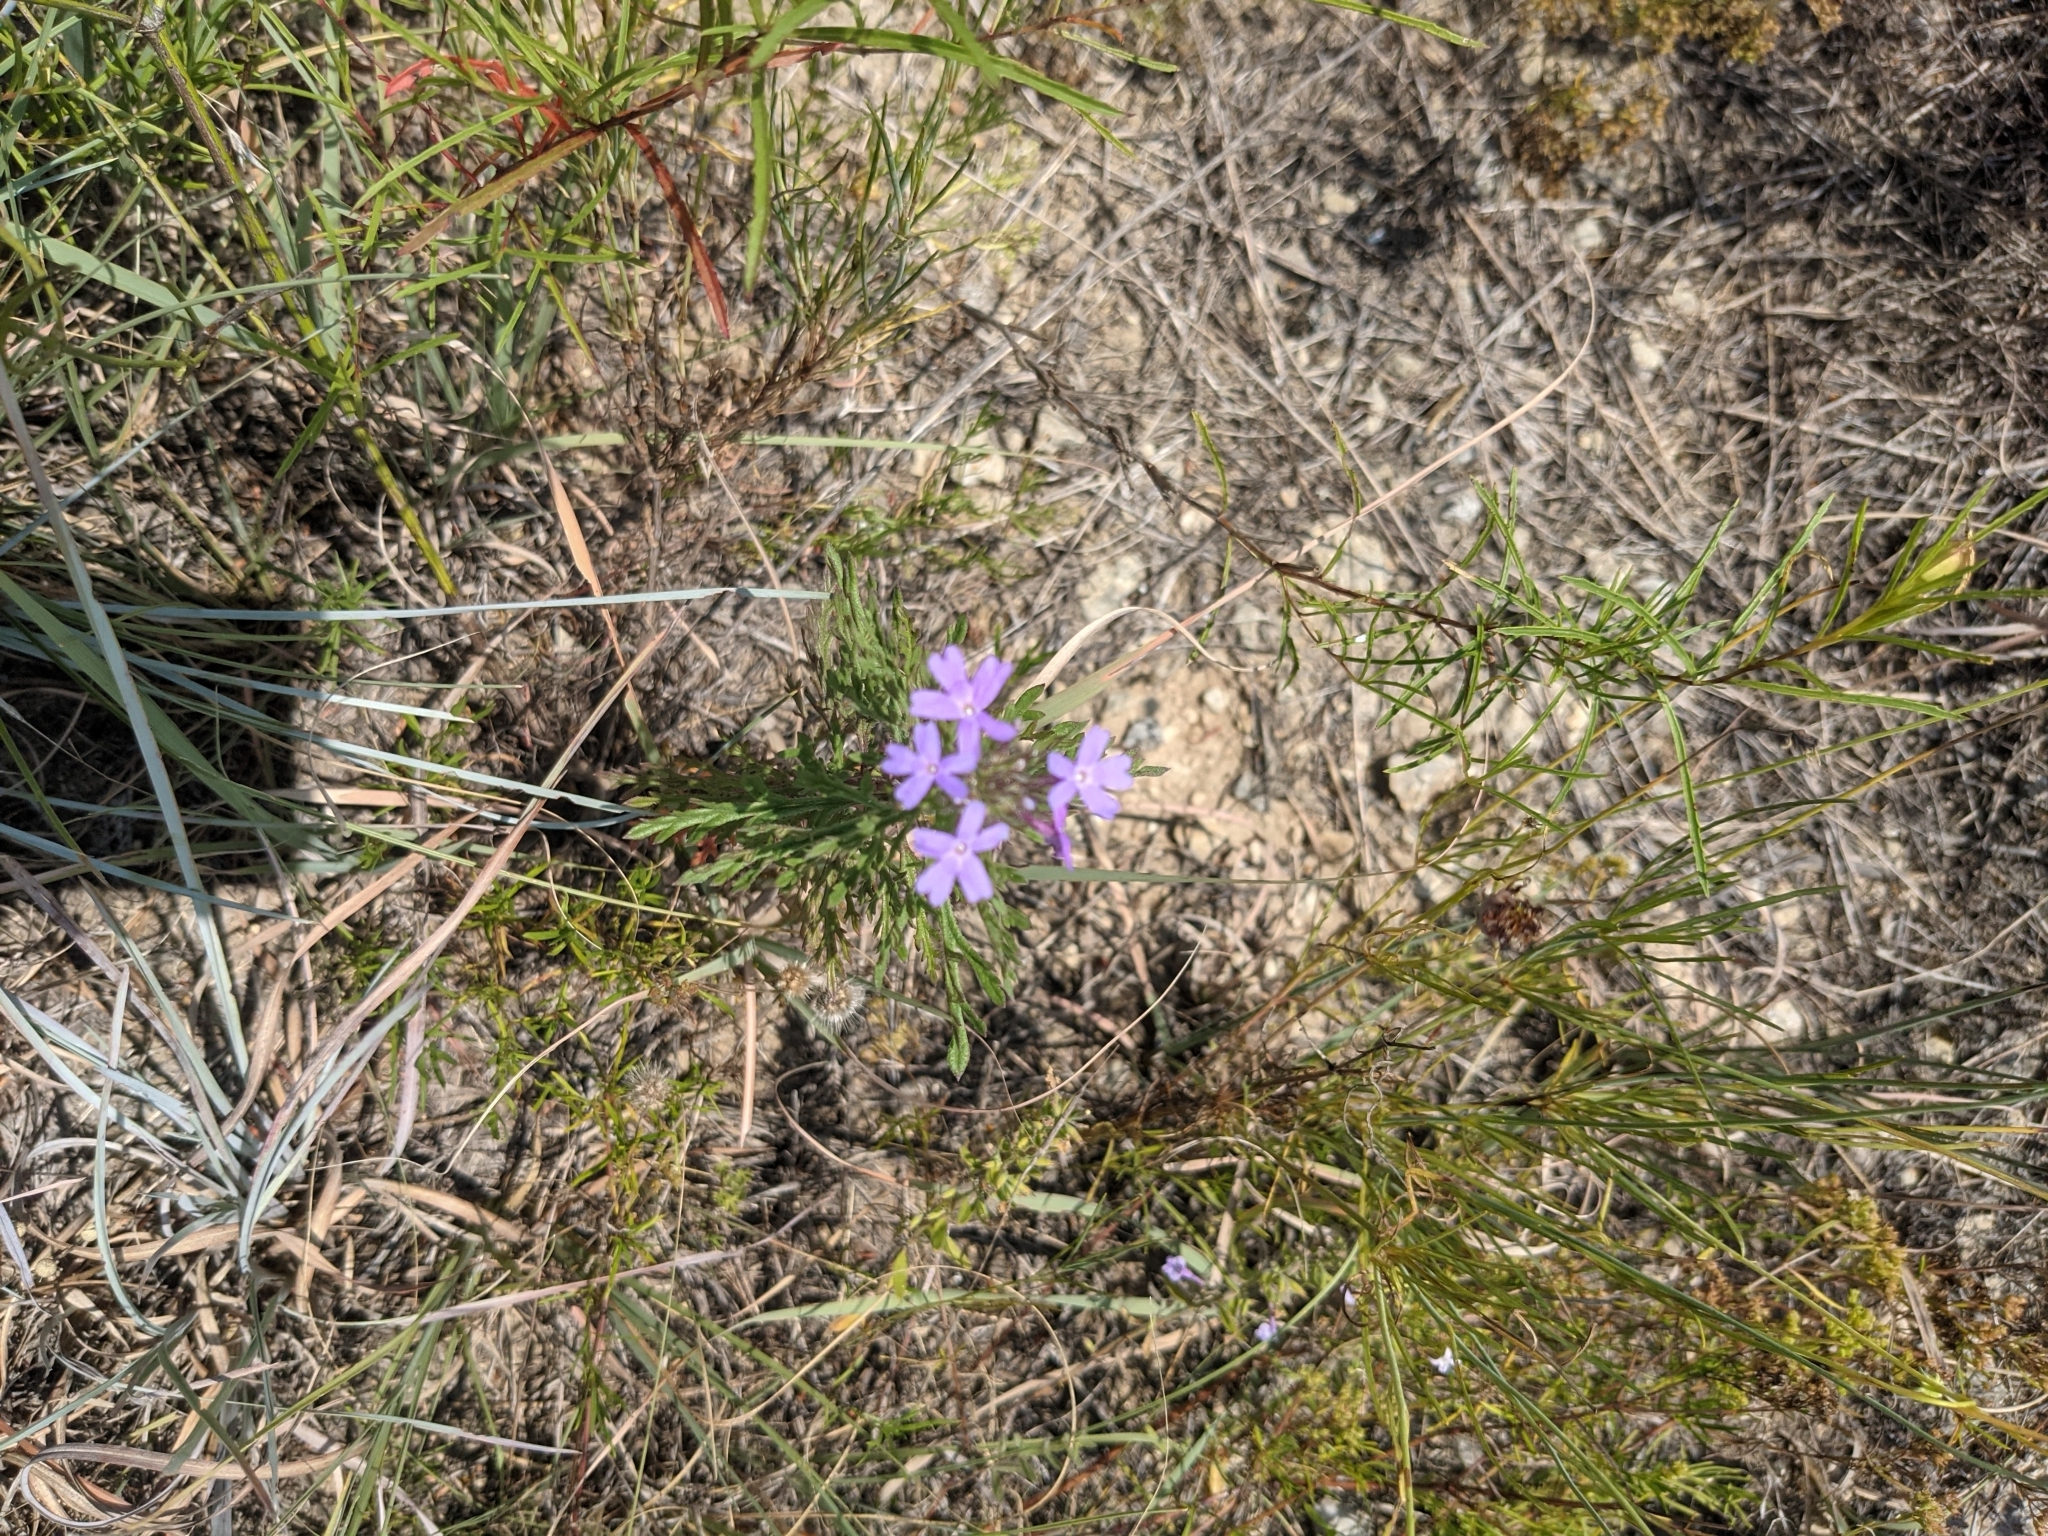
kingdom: Plantae
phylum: Tracheophyta
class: Magnoliopsida
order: Lamiales
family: Verbenaceae
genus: Verbena
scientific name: Verbena bipinnatifida
